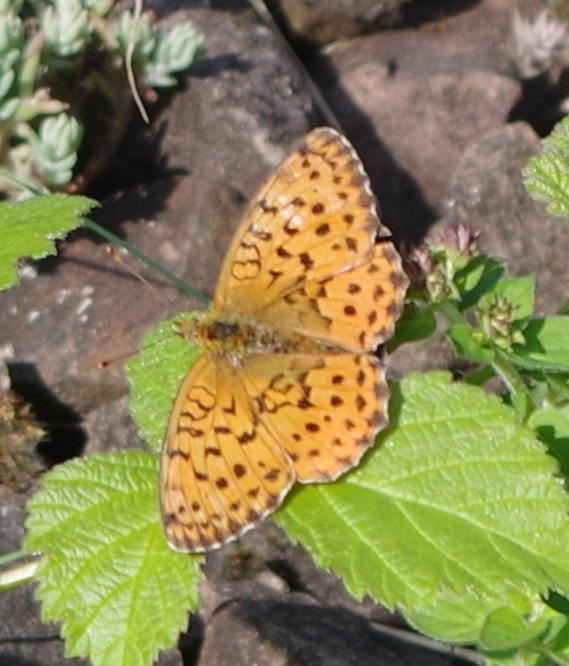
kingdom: Animalia
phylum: Arthropoda
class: Insecta
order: Lepidoptera
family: Nymphalidae
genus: Brenthis
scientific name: Brenthis daphne
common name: Marbled fritillary
